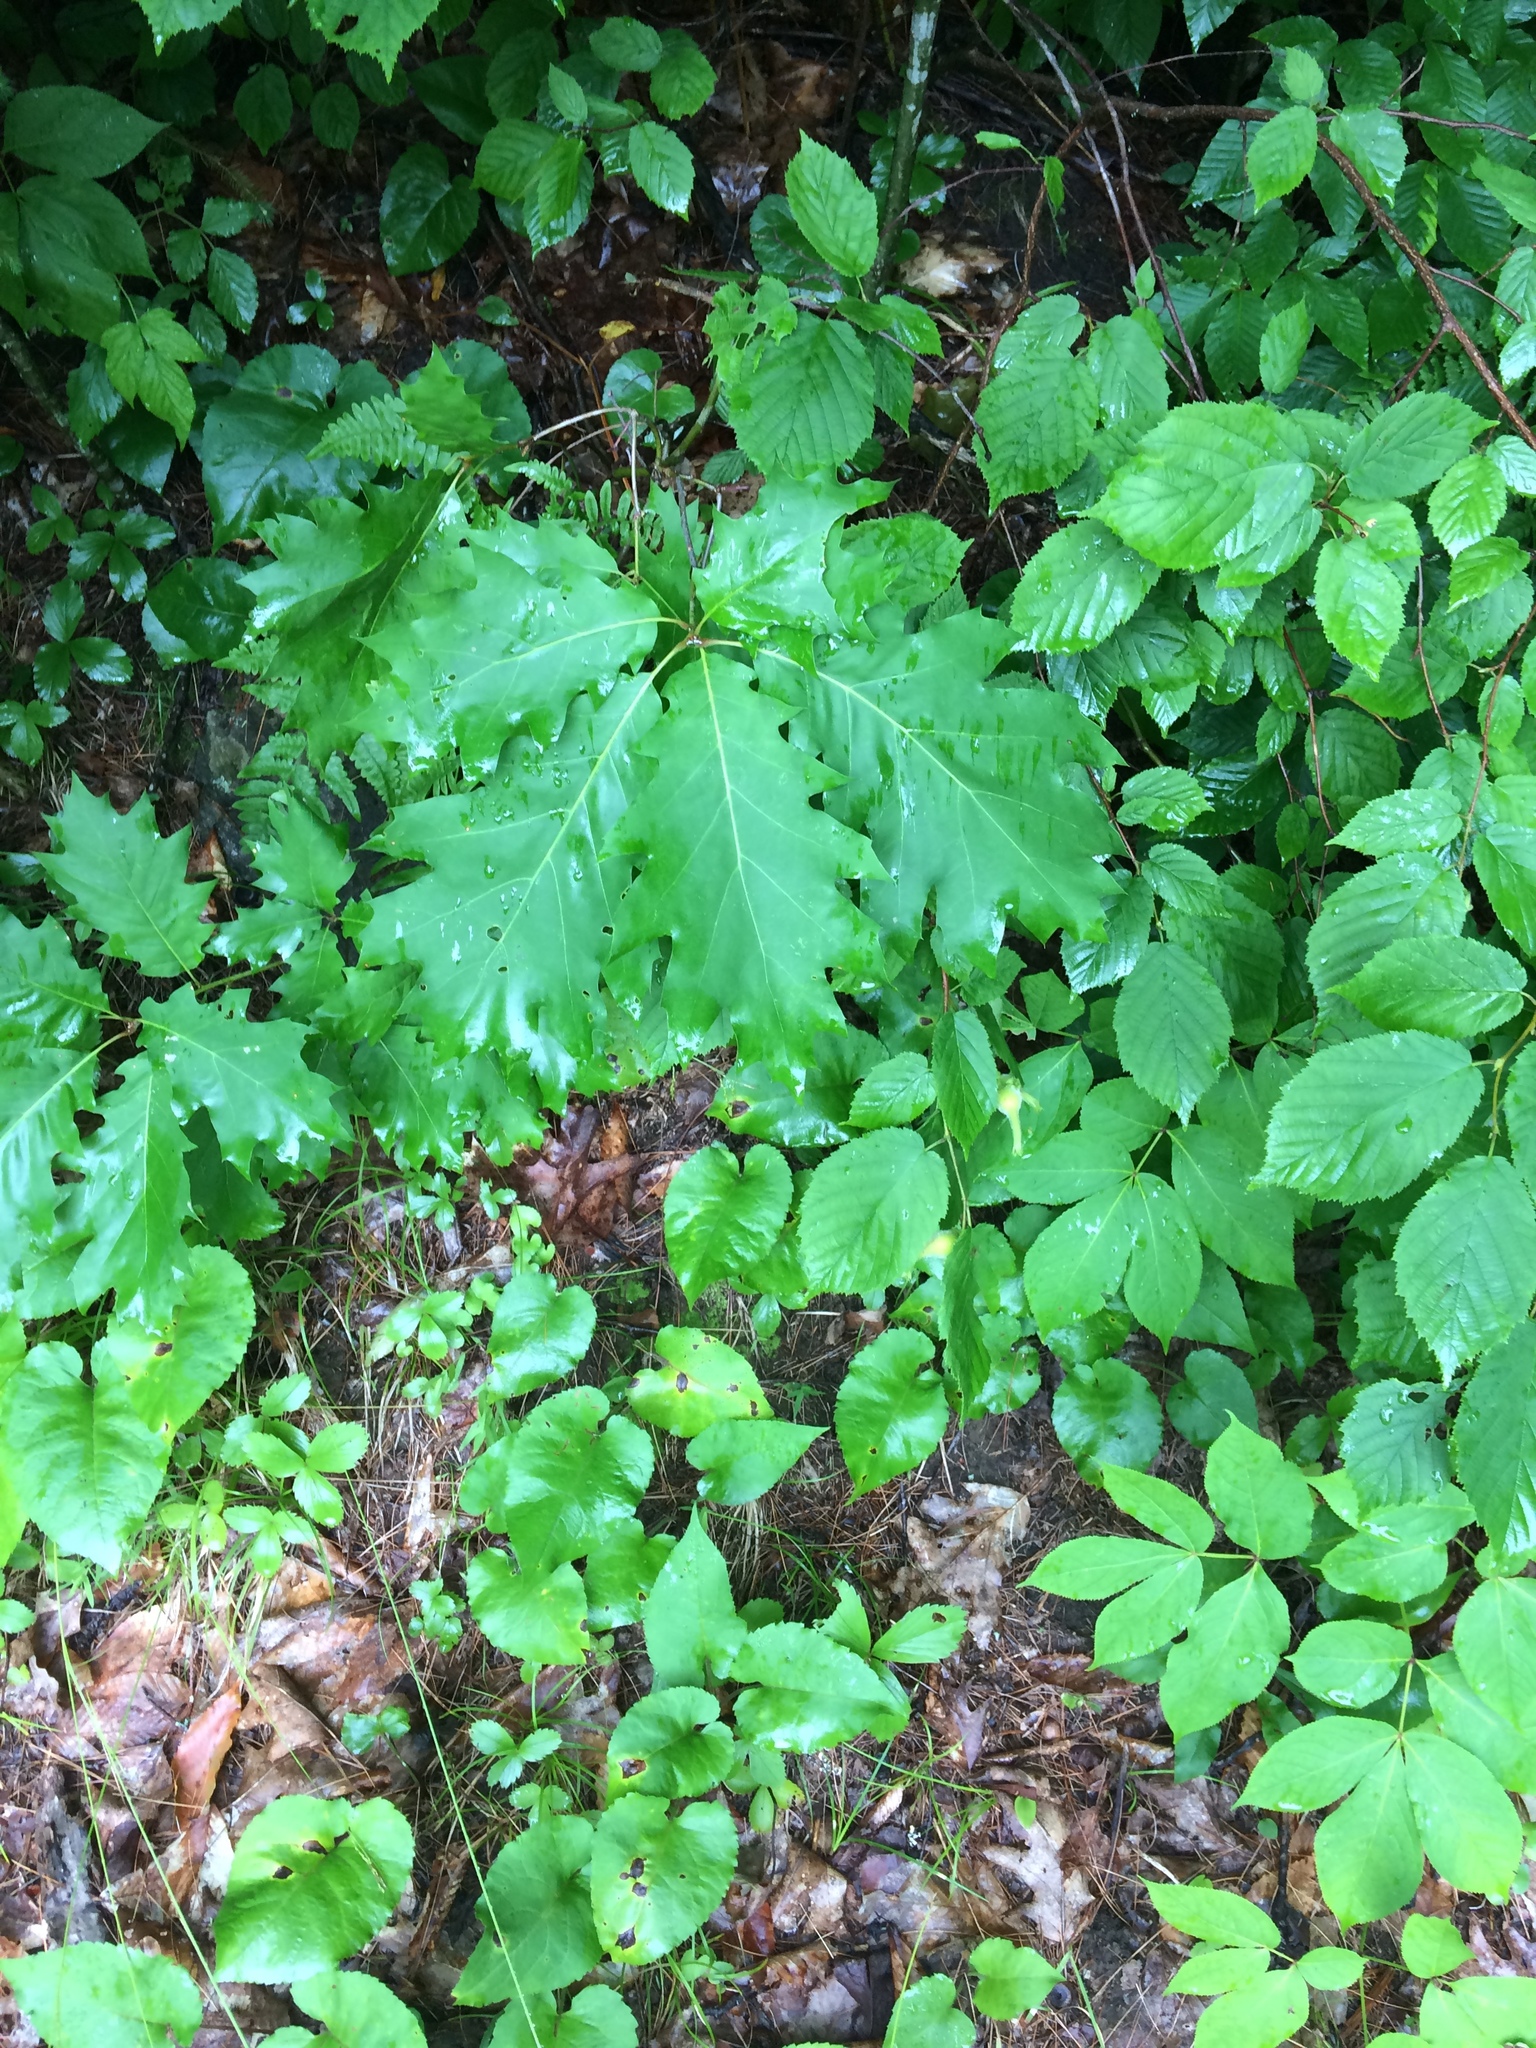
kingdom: Plantae
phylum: Tracheophyta
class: Magnoliopsida
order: Fagales
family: Fagaceae
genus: Quercus
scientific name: Quercus rubra
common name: Red oak
